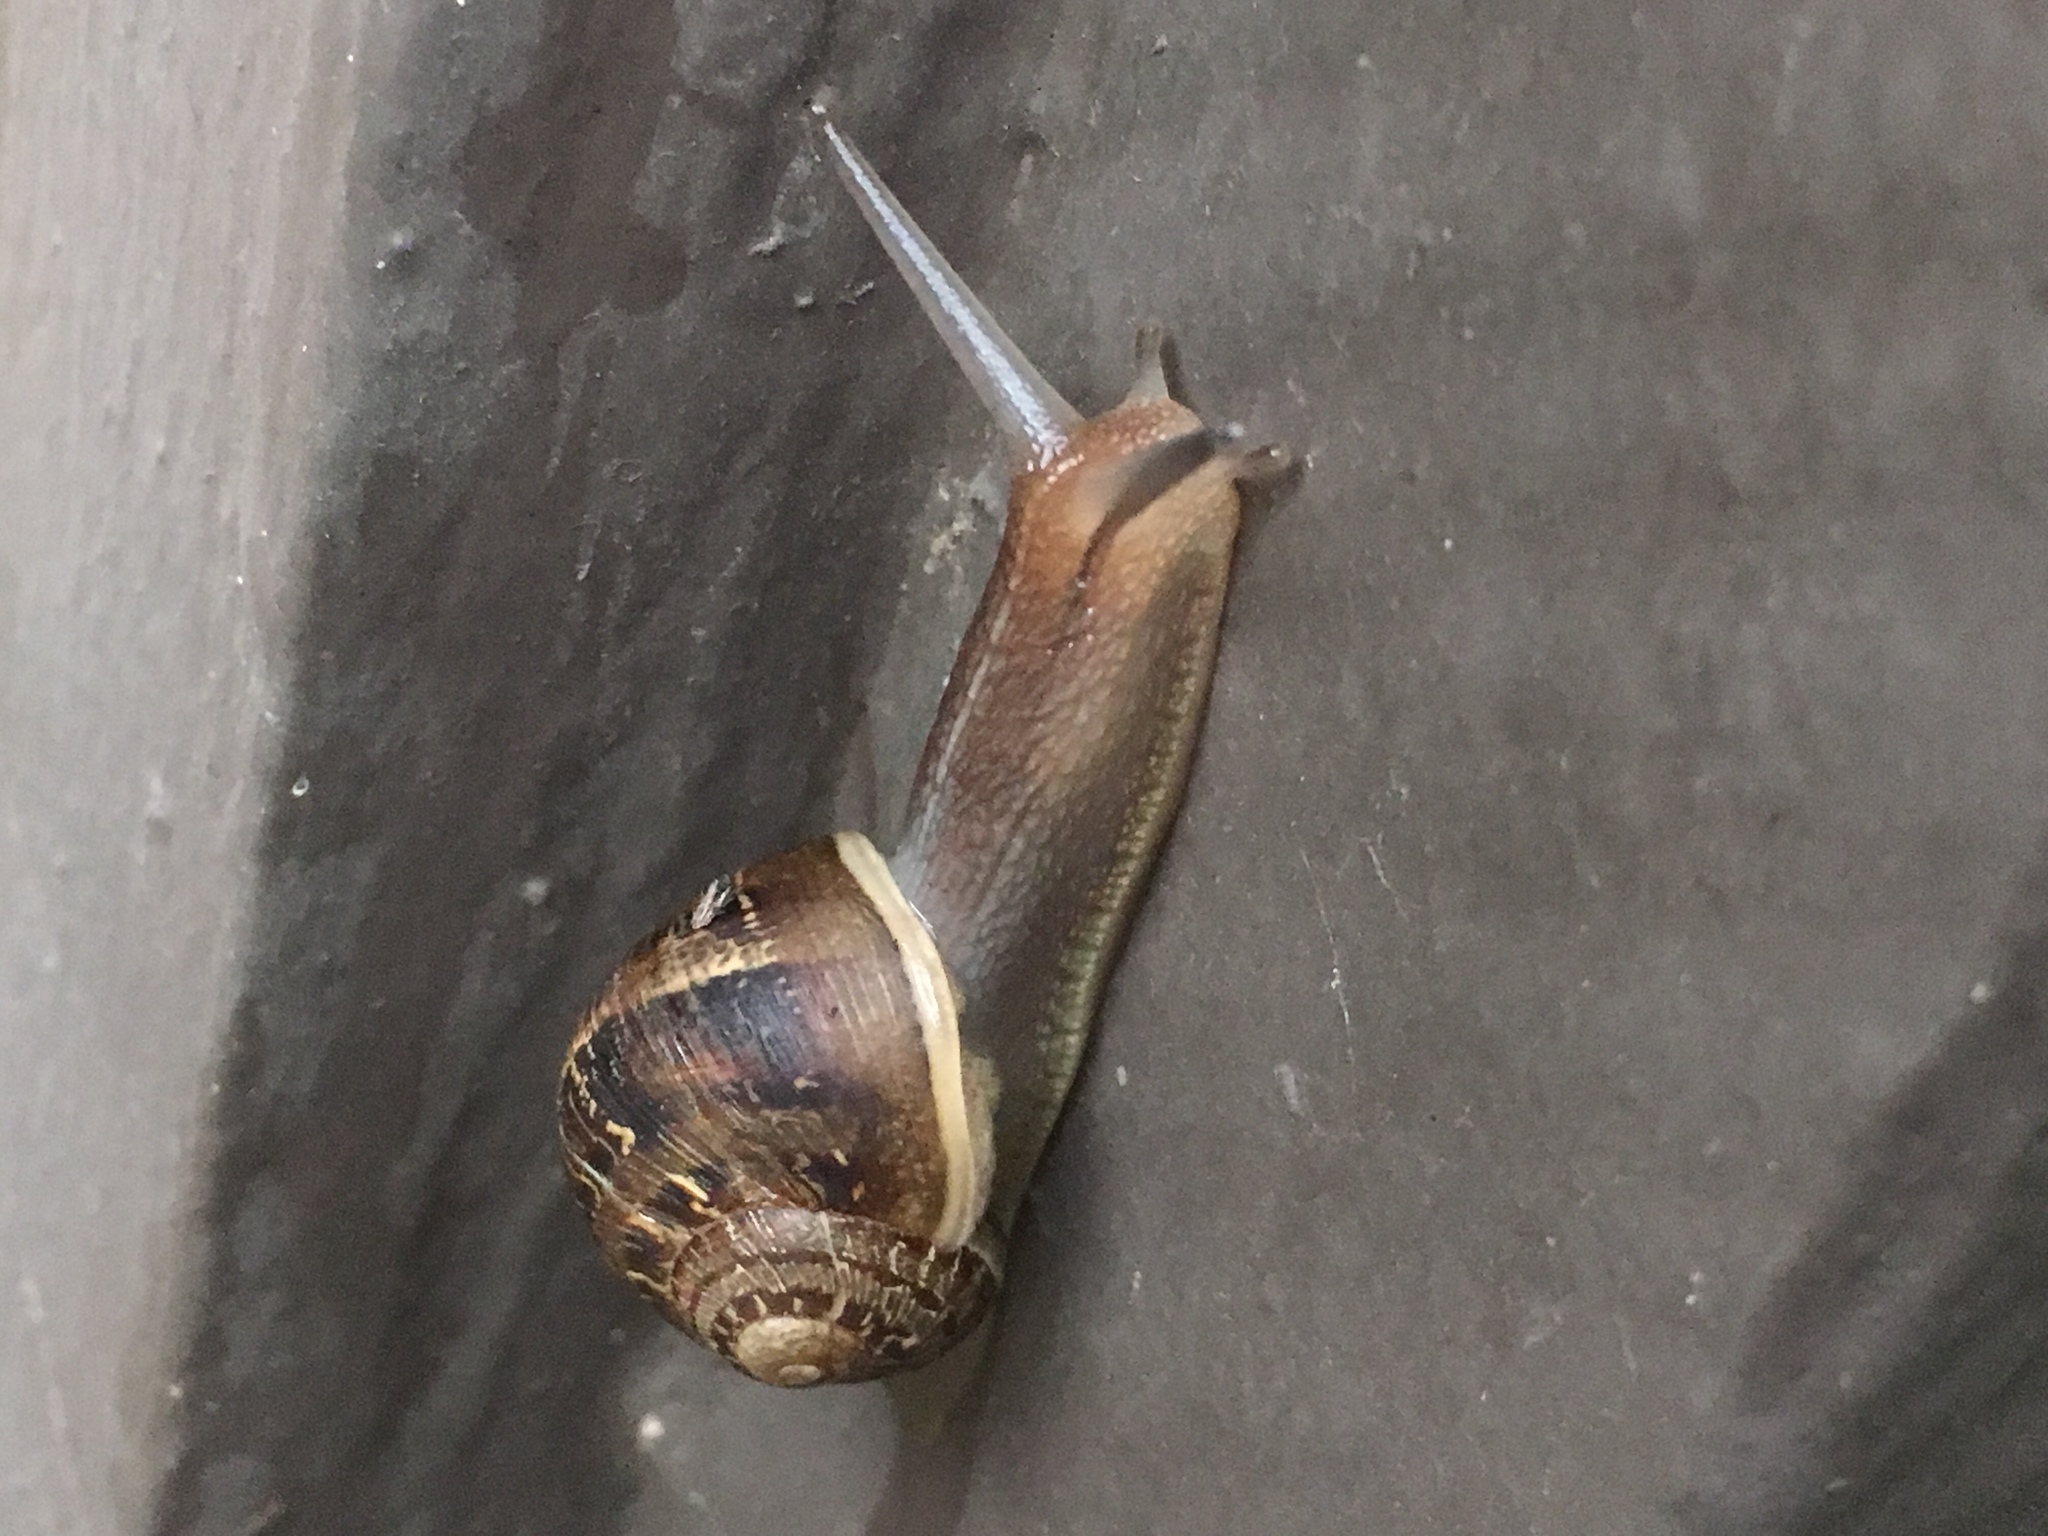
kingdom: Animalia
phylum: Mollusca
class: Gastropoda
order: Stylommatophora
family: Helicidae
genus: Cornu
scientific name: Cornu aspersum
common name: Brown garden snail
